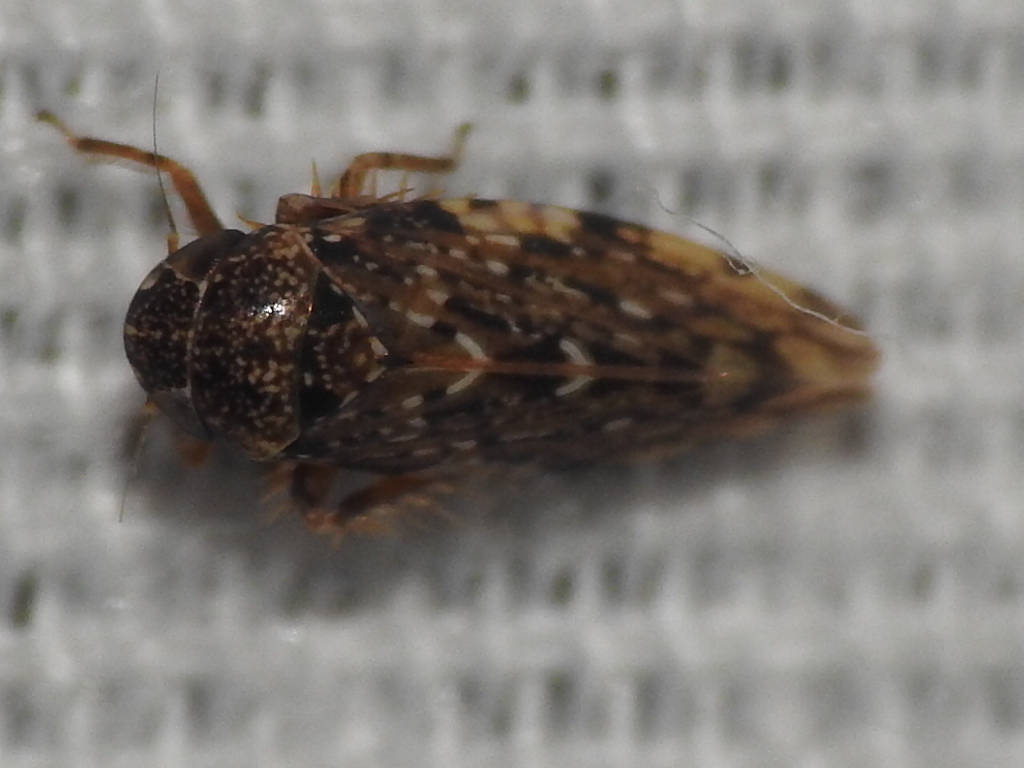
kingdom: Animalia
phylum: Arthropoda
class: Insecta
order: Hemiptera
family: Cicadellidae
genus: Xestocephalus
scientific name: Xestocephalus tessellatus
